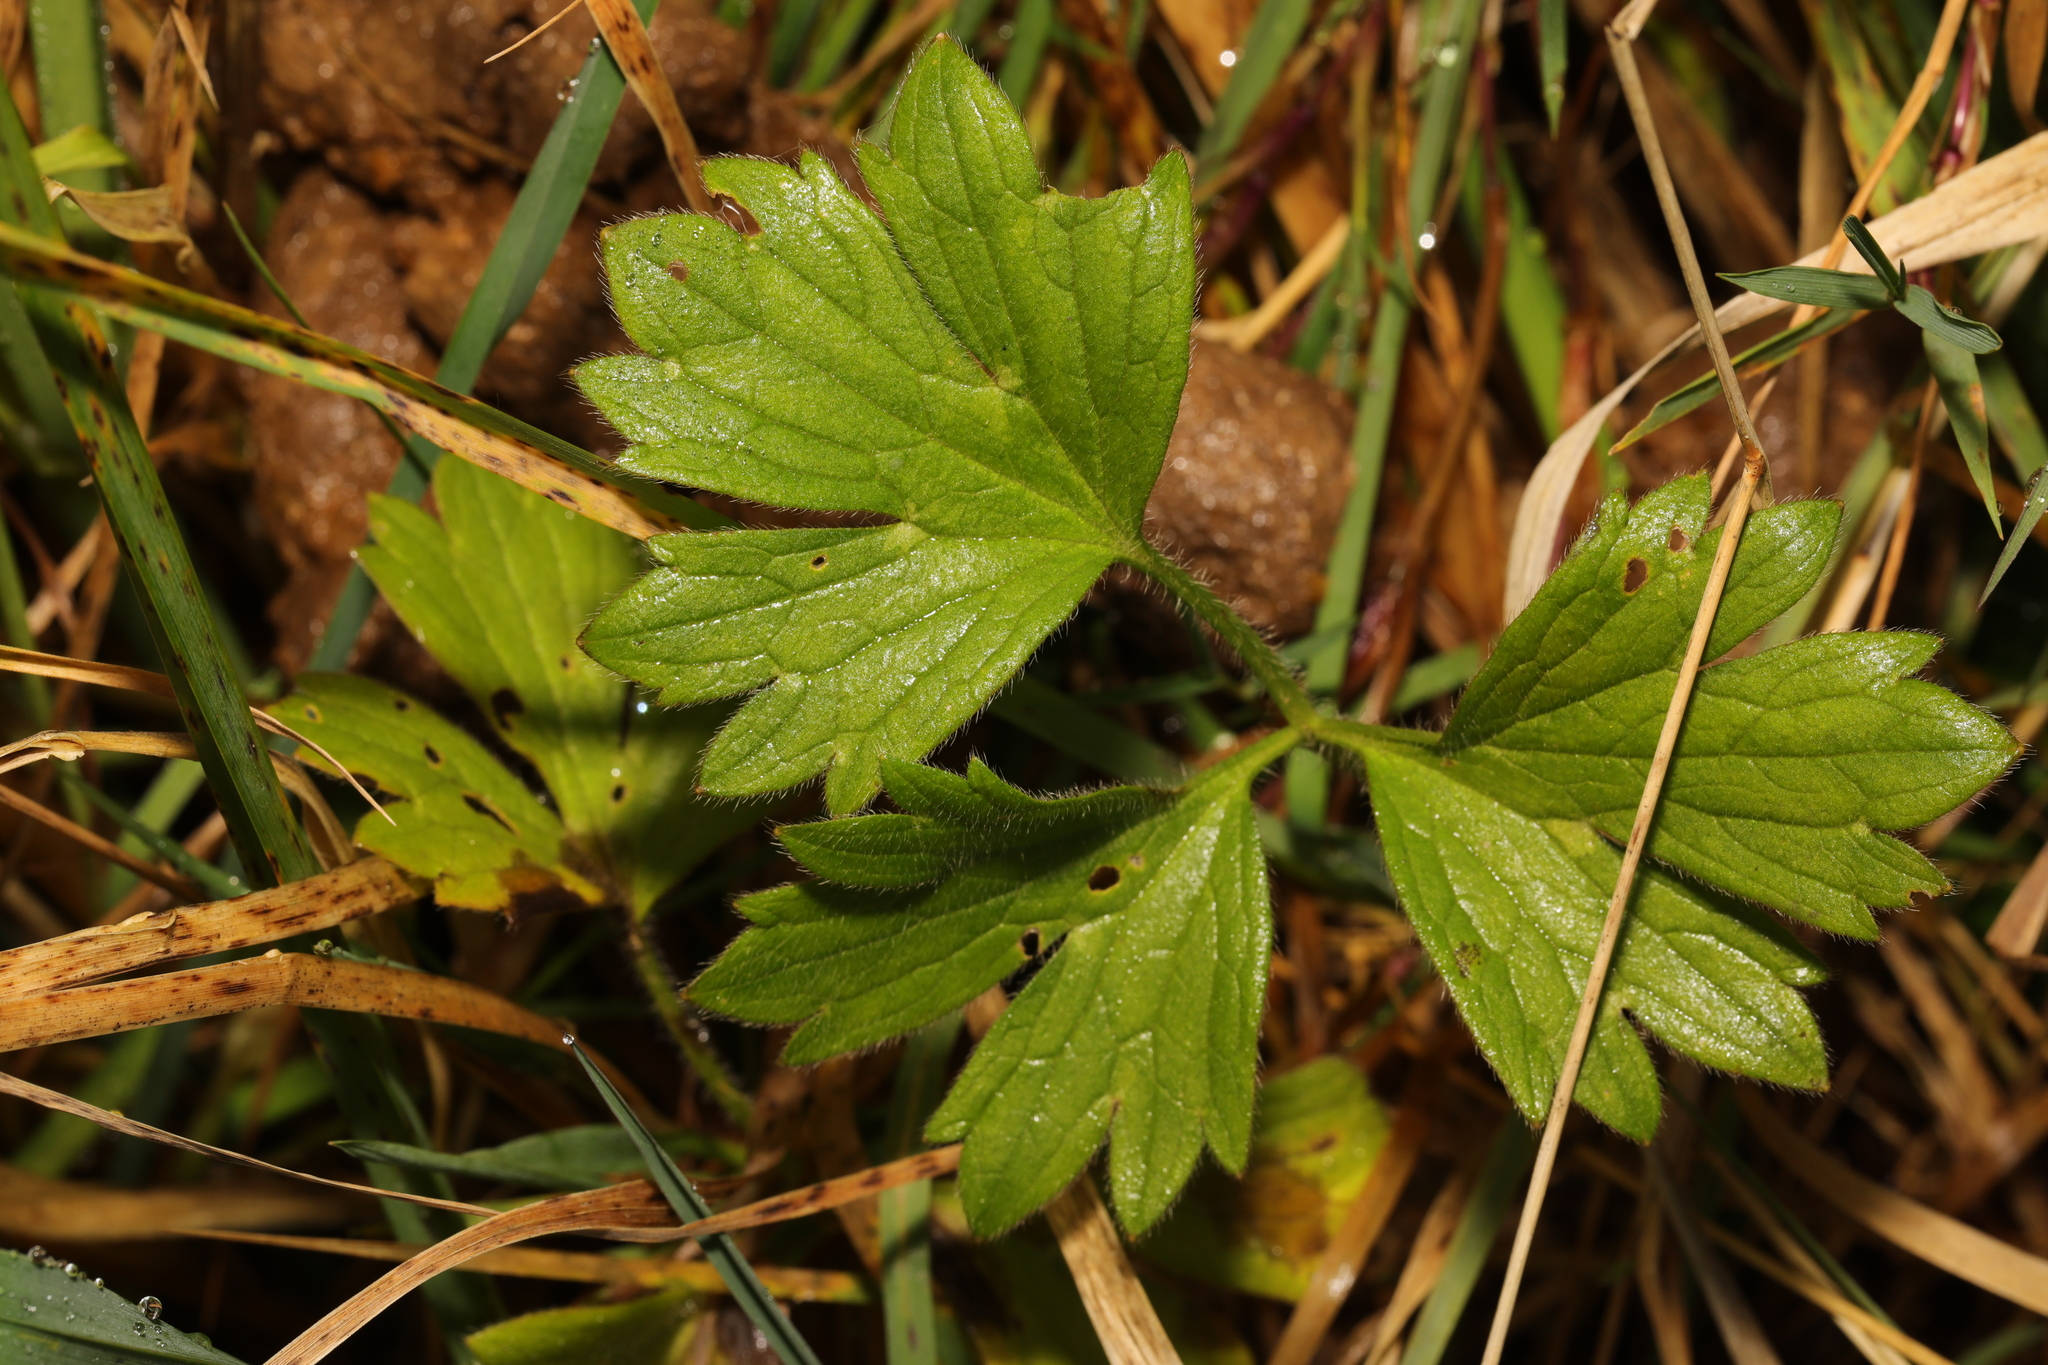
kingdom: Plantae
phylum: Tracheophyta
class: Magnoliopsida
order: Ranunculales
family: Ranunculaceae
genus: Ranunculus
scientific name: Ranunculus repens
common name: Creeping buttercup
